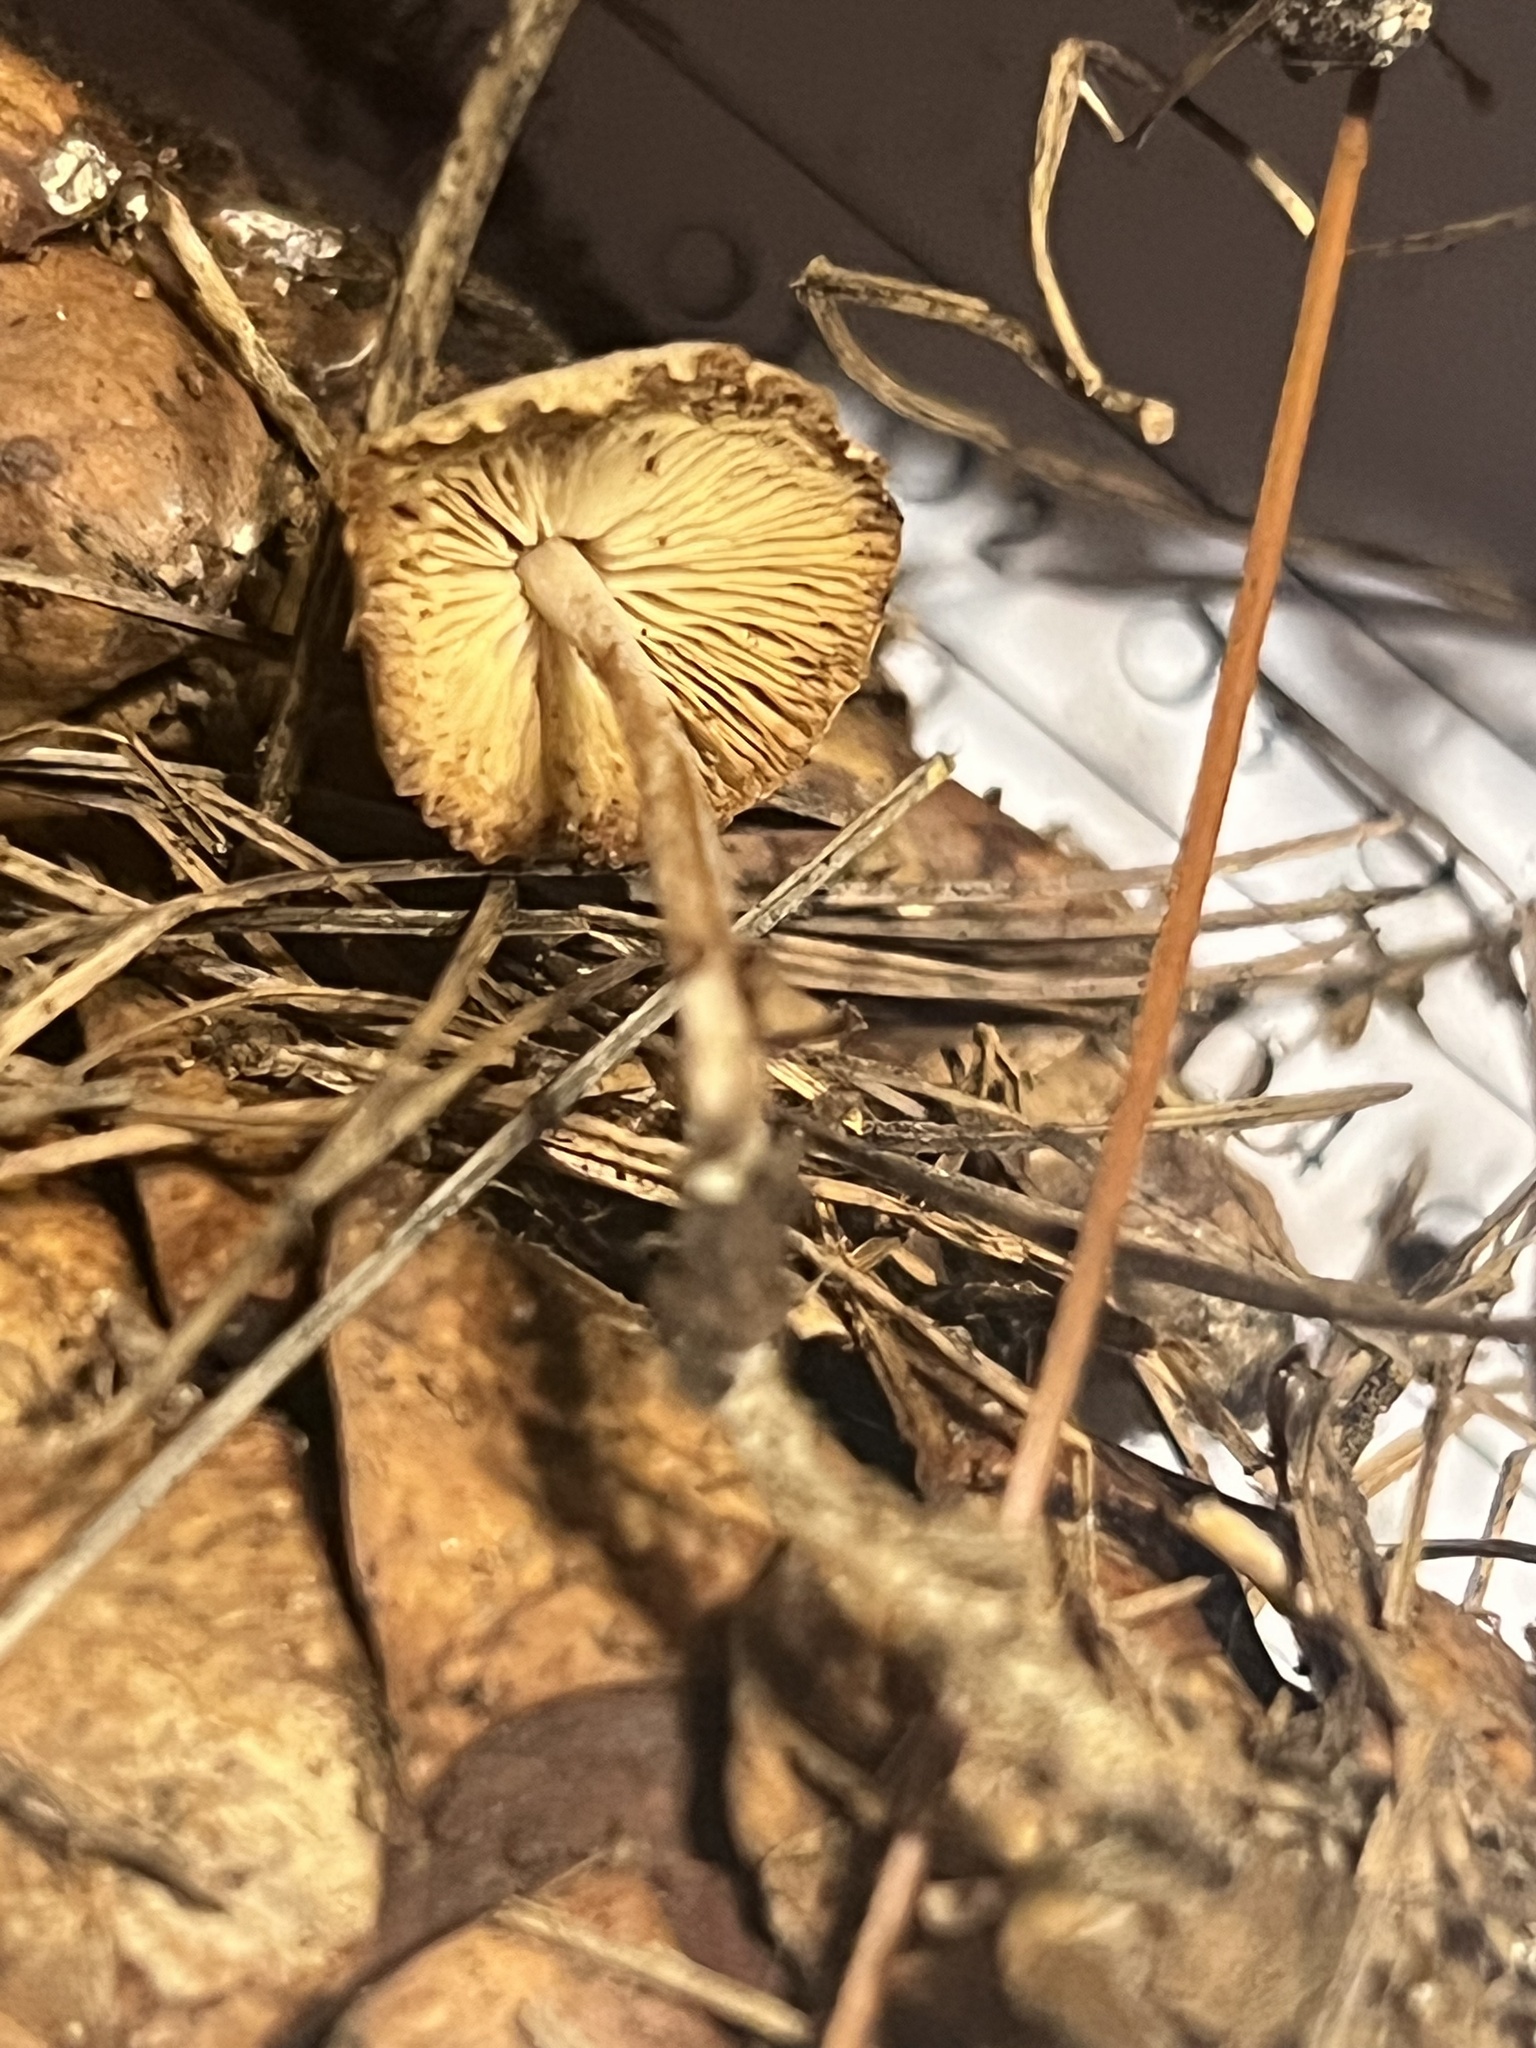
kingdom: Fungi
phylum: Basidiomycota
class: Agaricomycetes
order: Agaricales
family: Marasmiaceae
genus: Baeospora
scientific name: Baeospora myosura
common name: Conifercone cap
